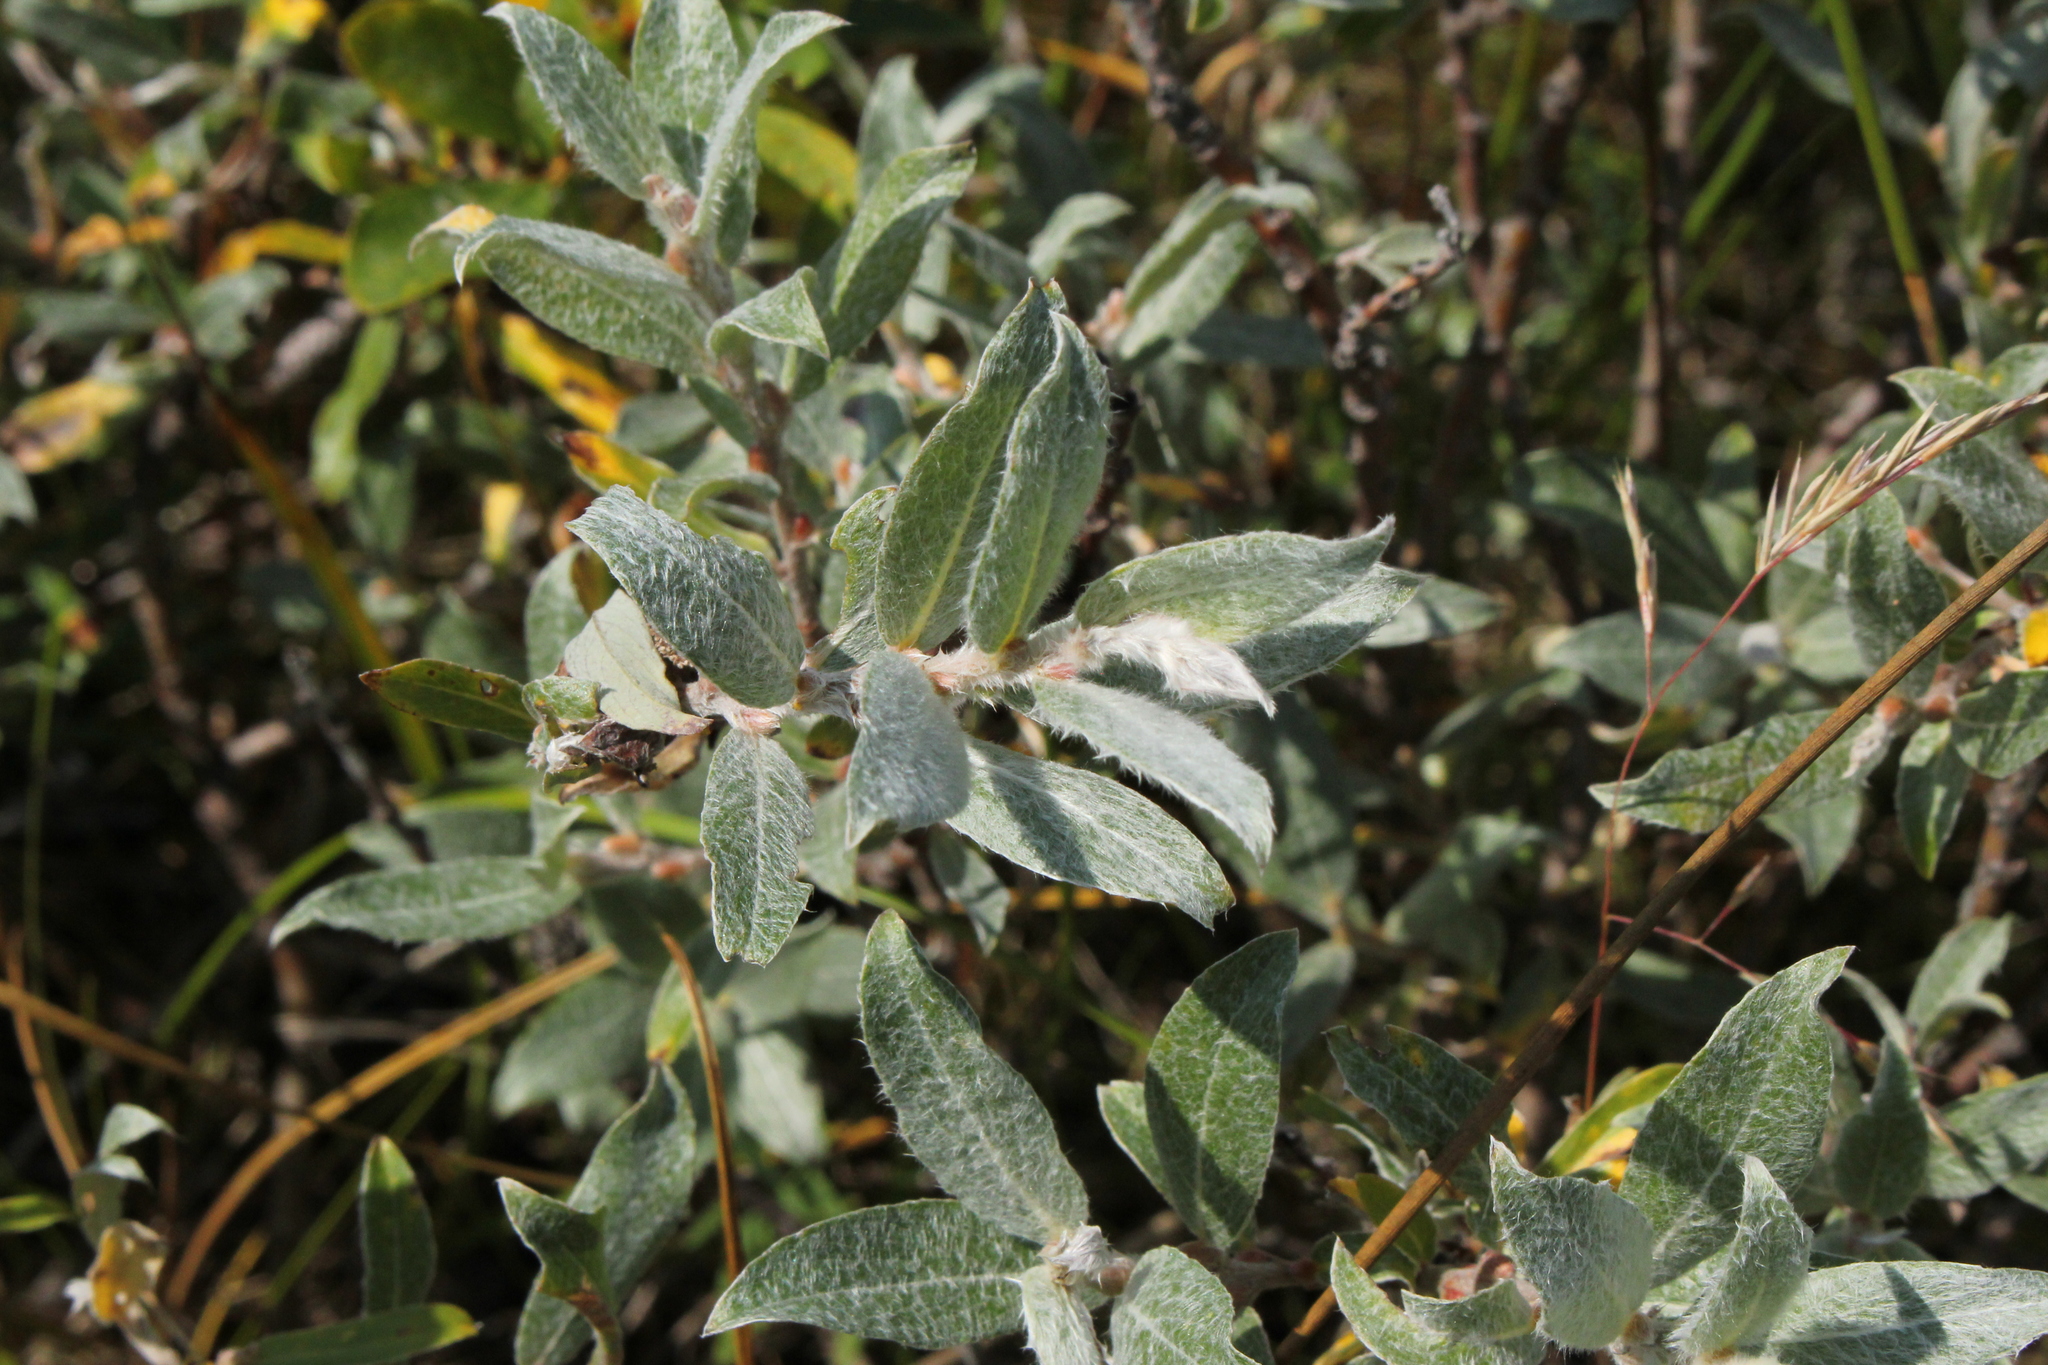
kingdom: Plantae
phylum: Tracheophyta
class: Magnoliopsida
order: Malpighiales
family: Salicaceae
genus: Salix
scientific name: Salix glauca
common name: Glaucous willow
